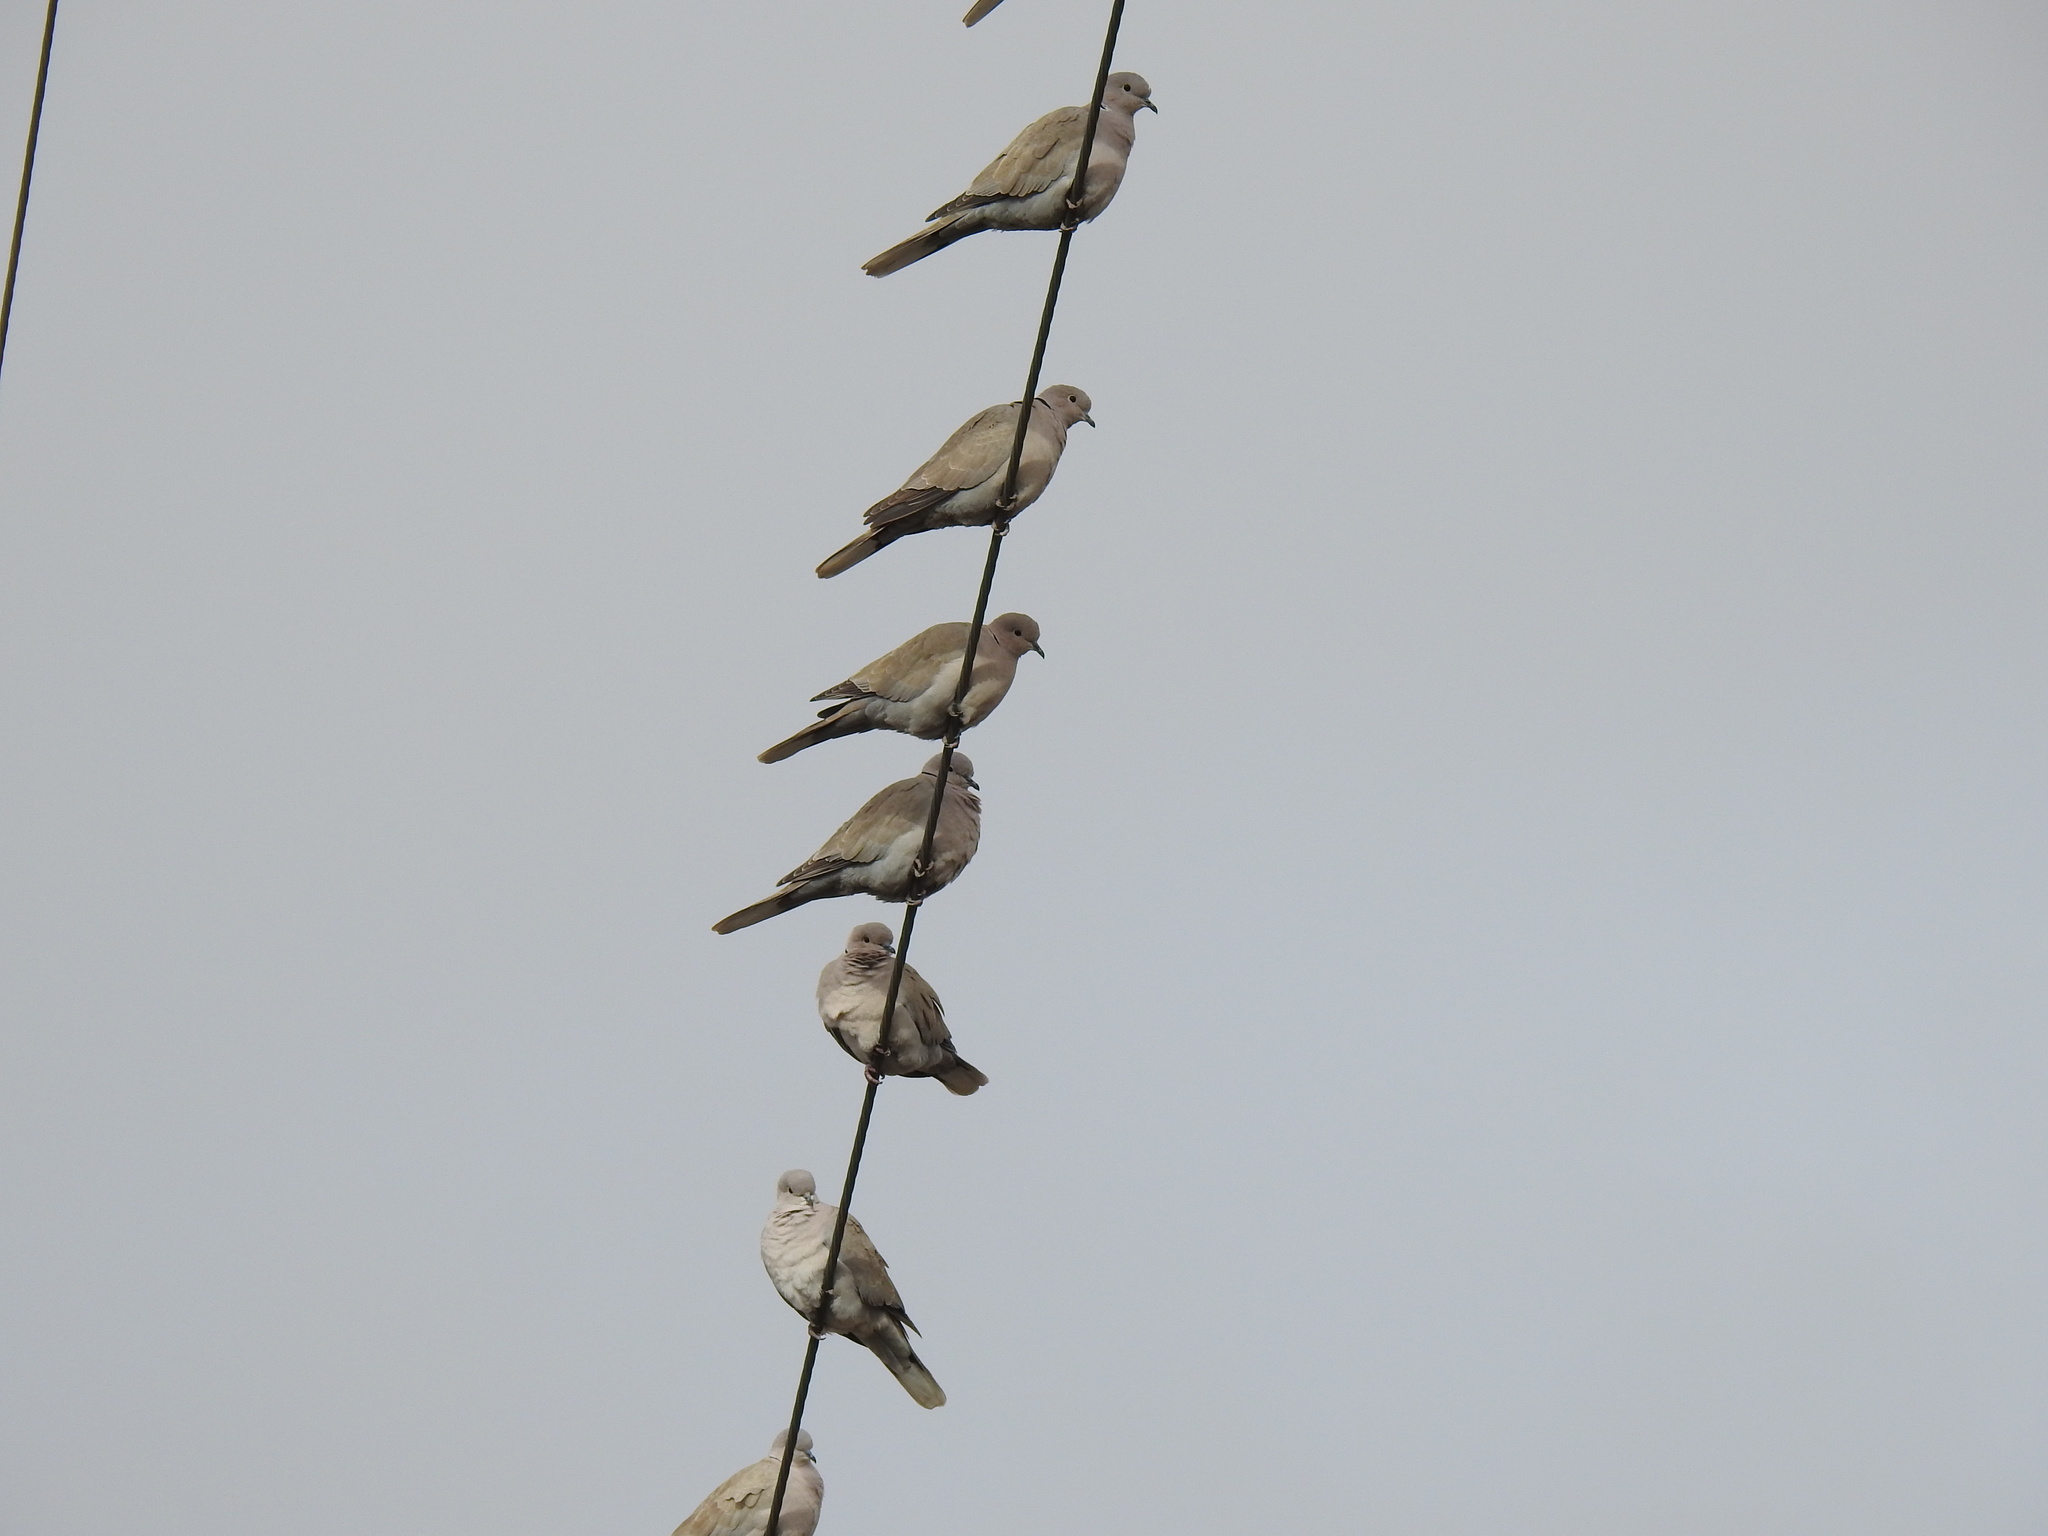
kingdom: Animalia
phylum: Chordata
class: Aves
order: Columbiformes
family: Columbidae
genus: Streptopelia
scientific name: Streptopelia decaocto
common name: Eurasian collared dove
